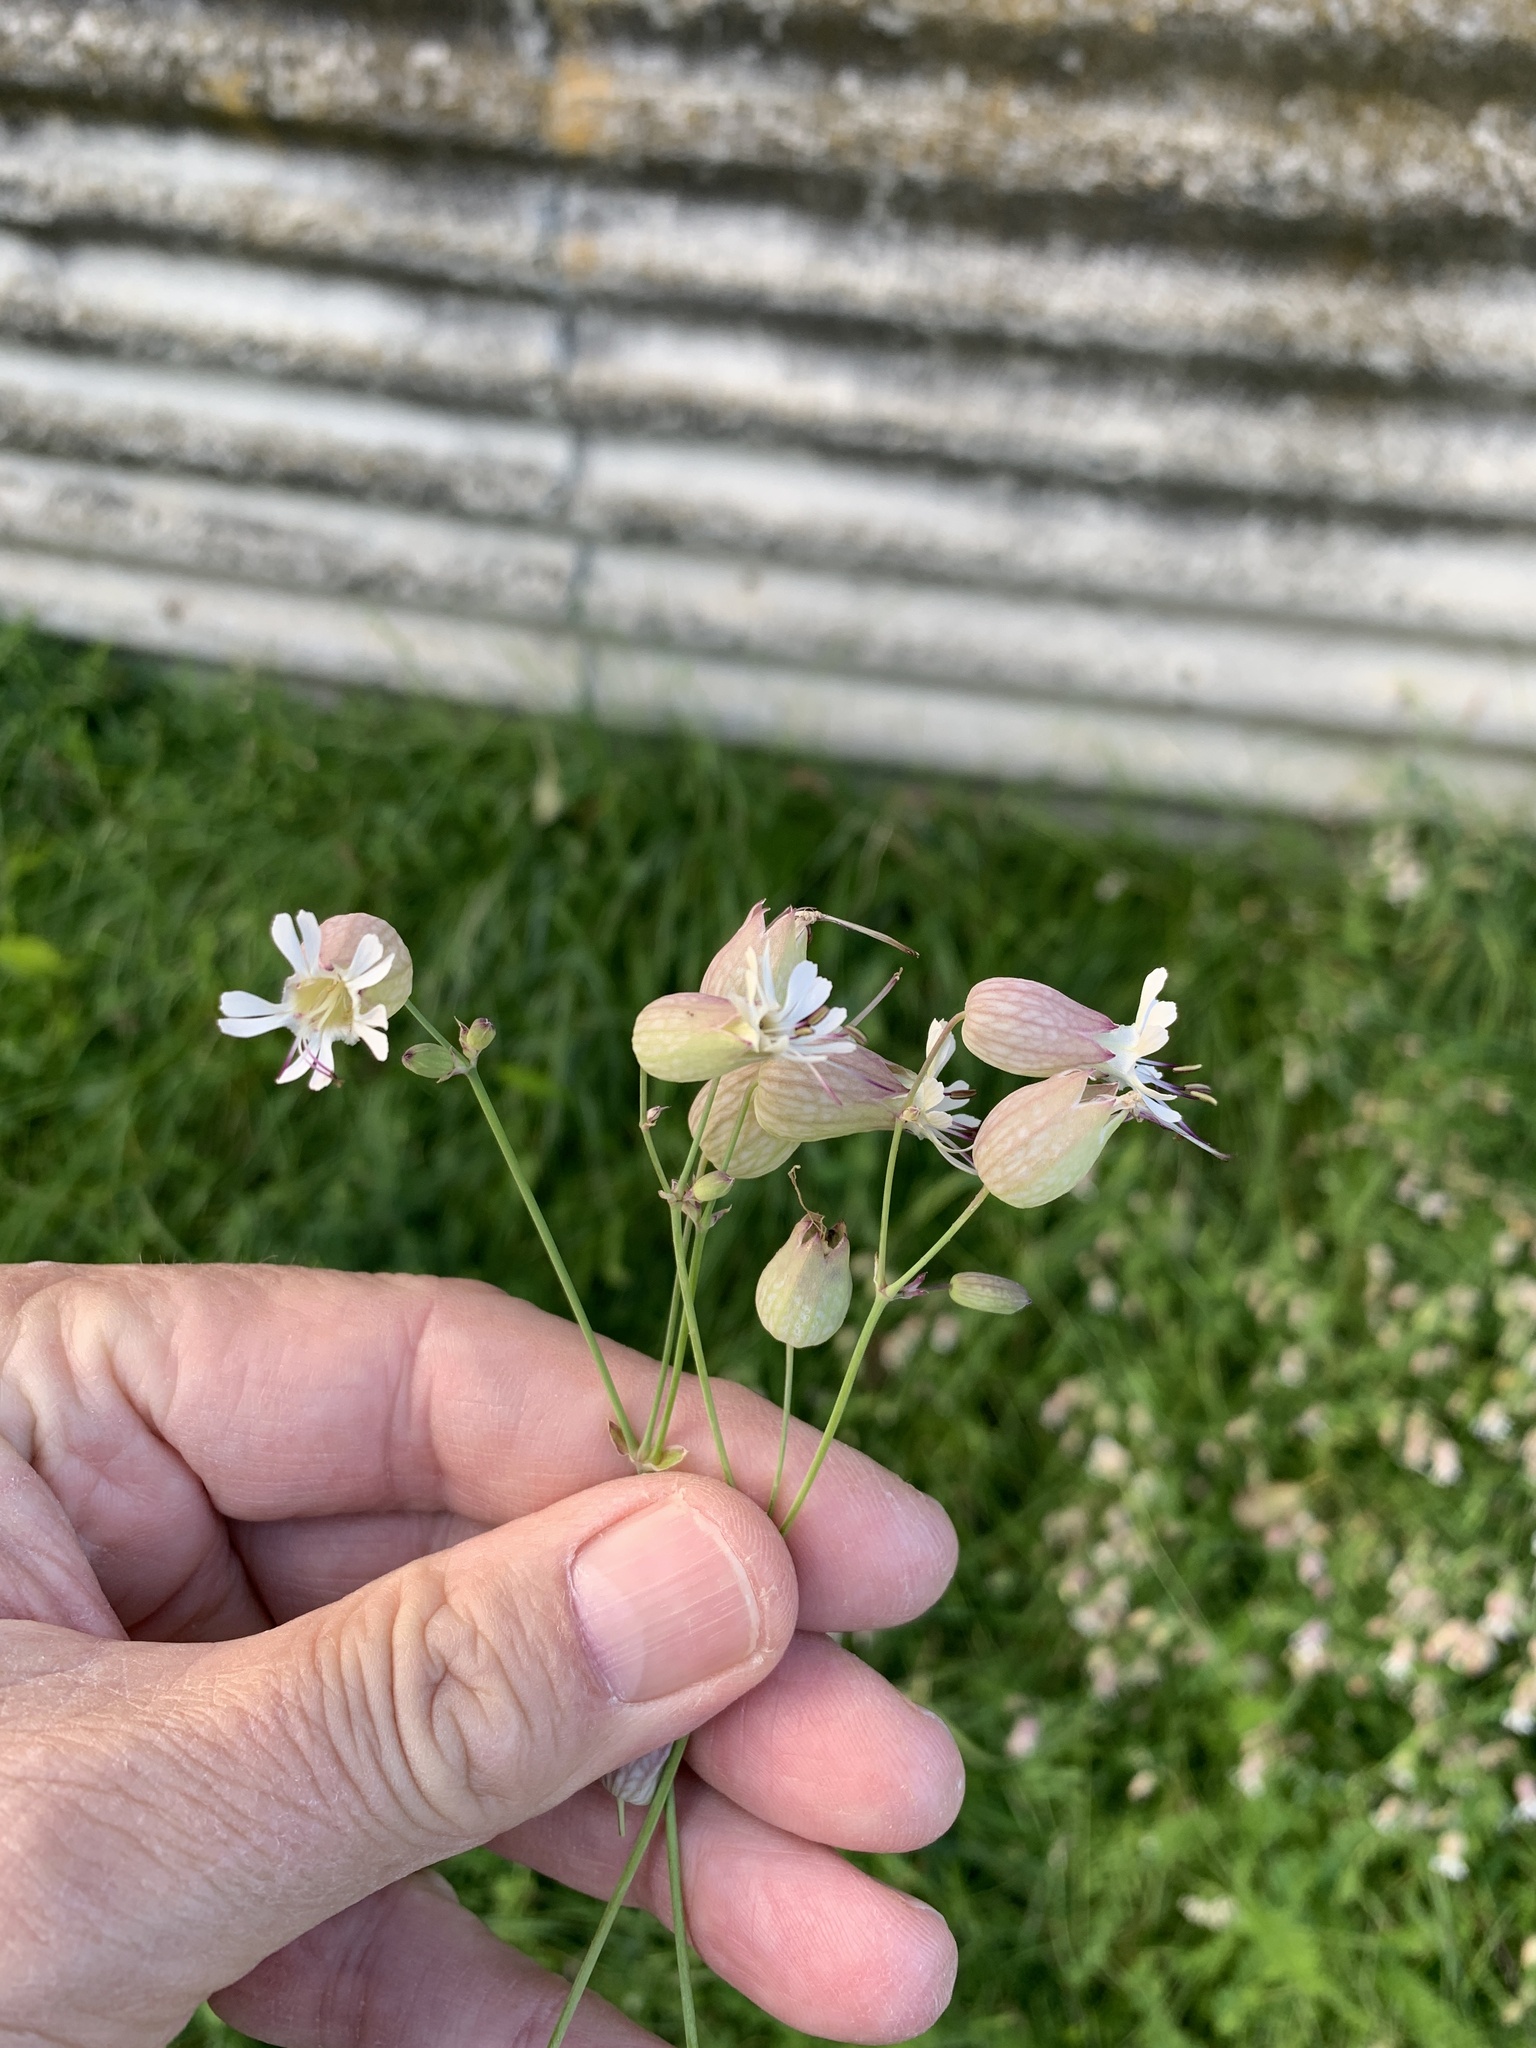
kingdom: Plantae
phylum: Tracheophyta
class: Magnoliopsida
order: Caryophyllales
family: Caryophyllaceae
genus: Silene
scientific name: Silene vulgaris
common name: Bladder campion
